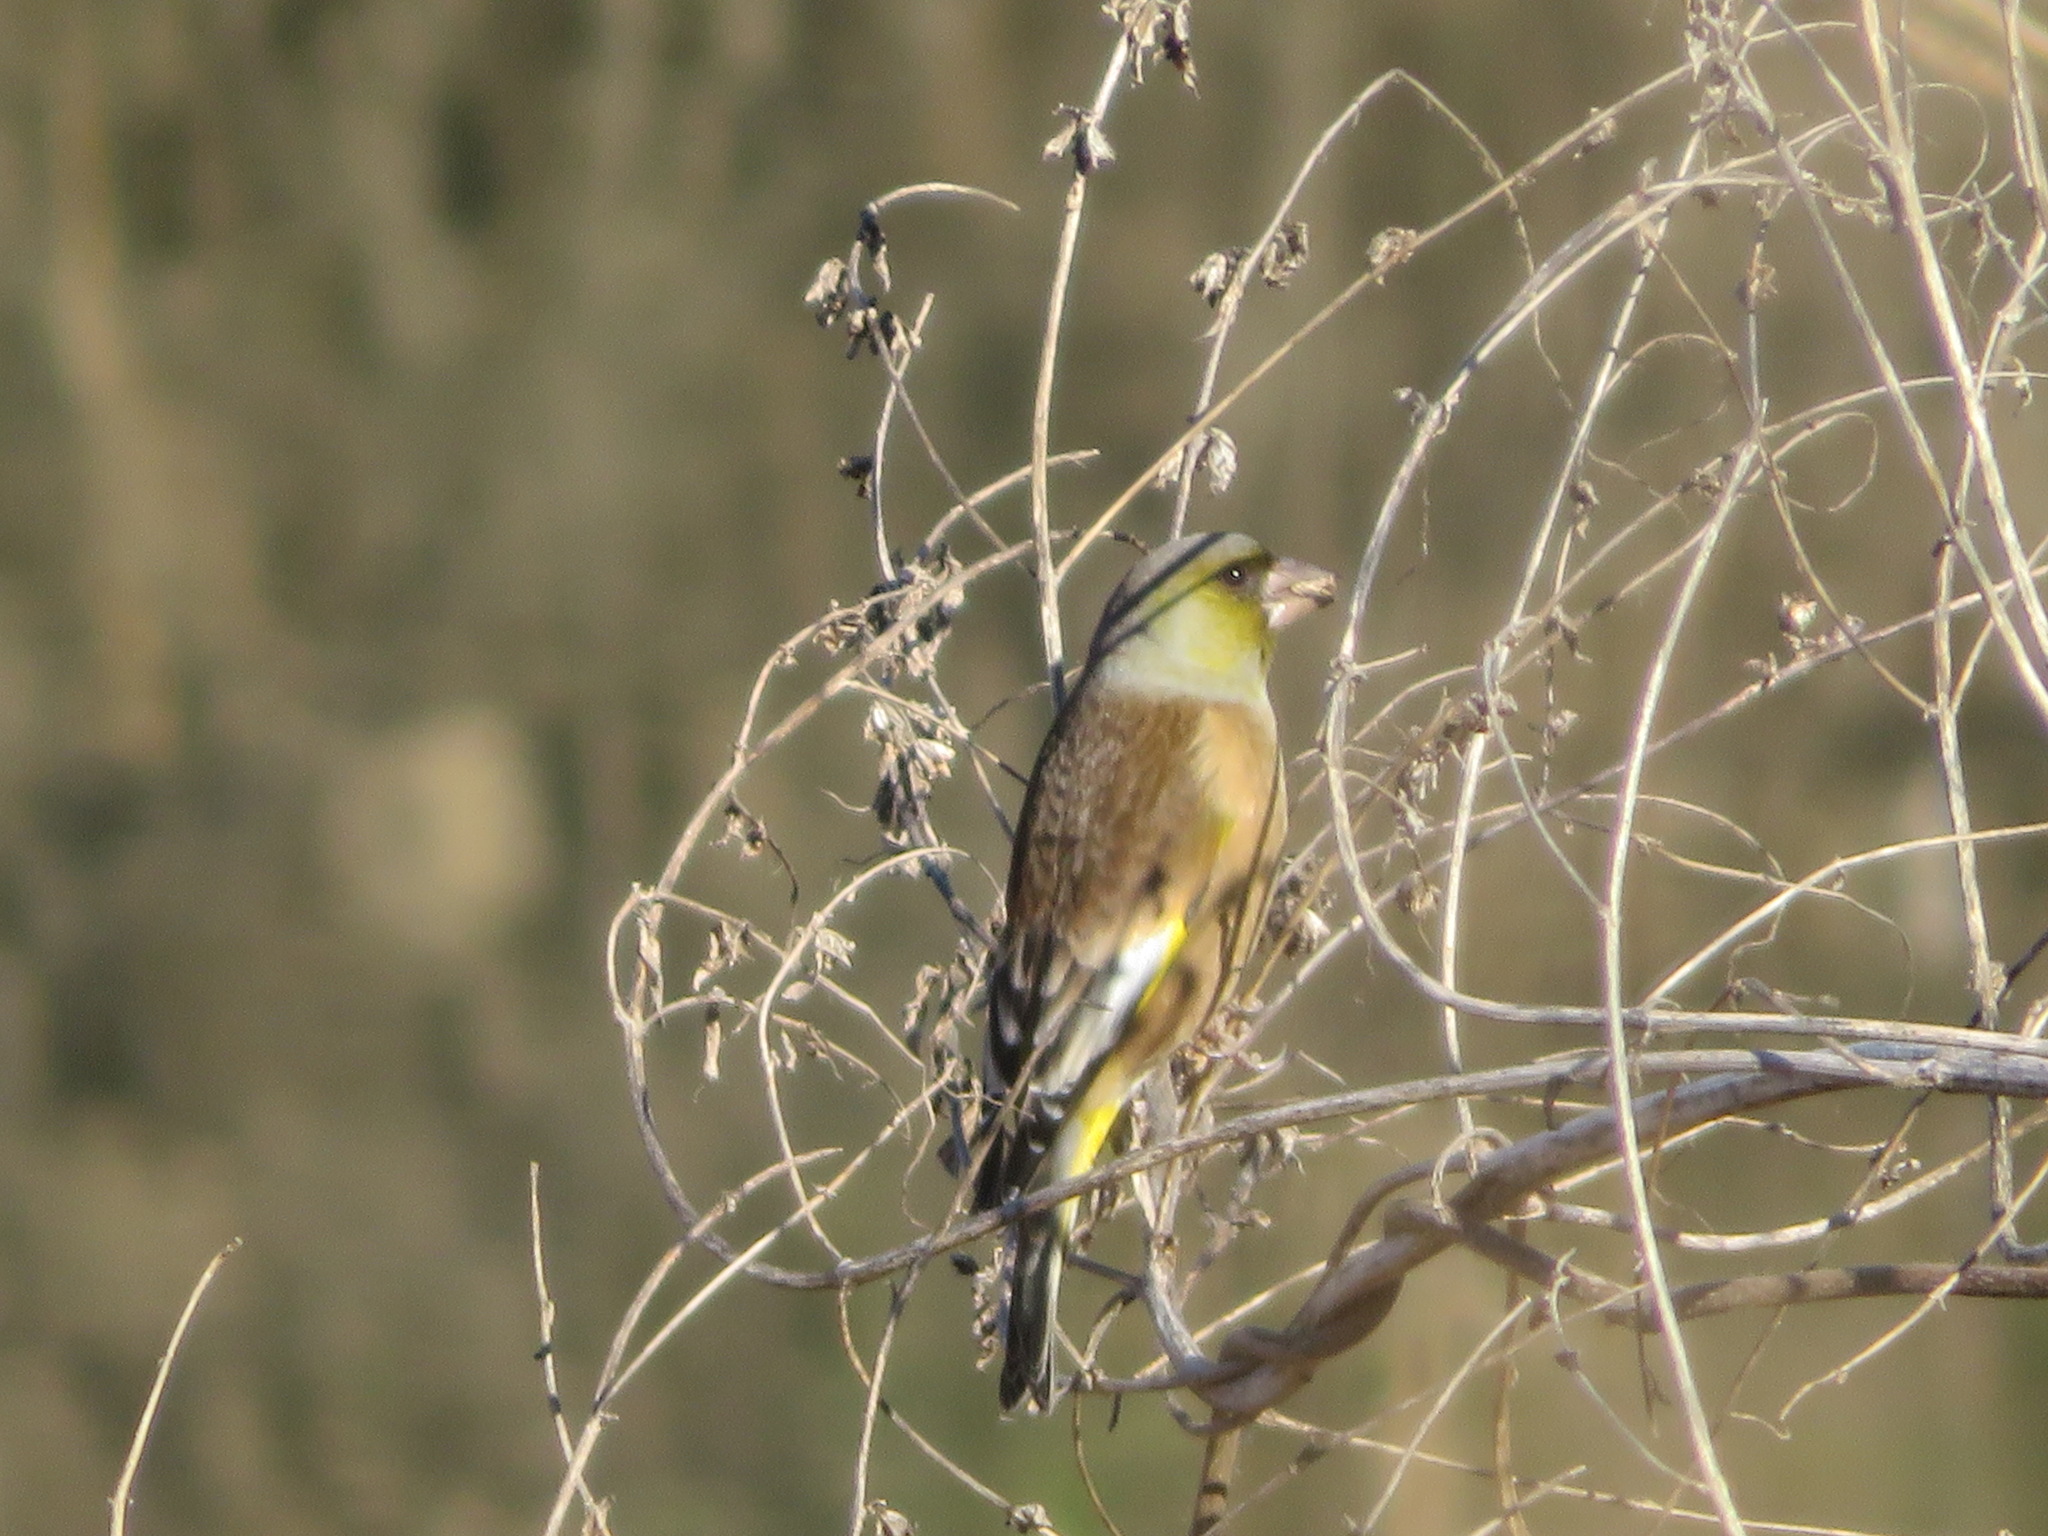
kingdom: Plantae
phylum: Tracheophyta
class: Liliopsida
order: Poales
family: Poaceae
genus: Chloris
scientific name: Chloris sinica
